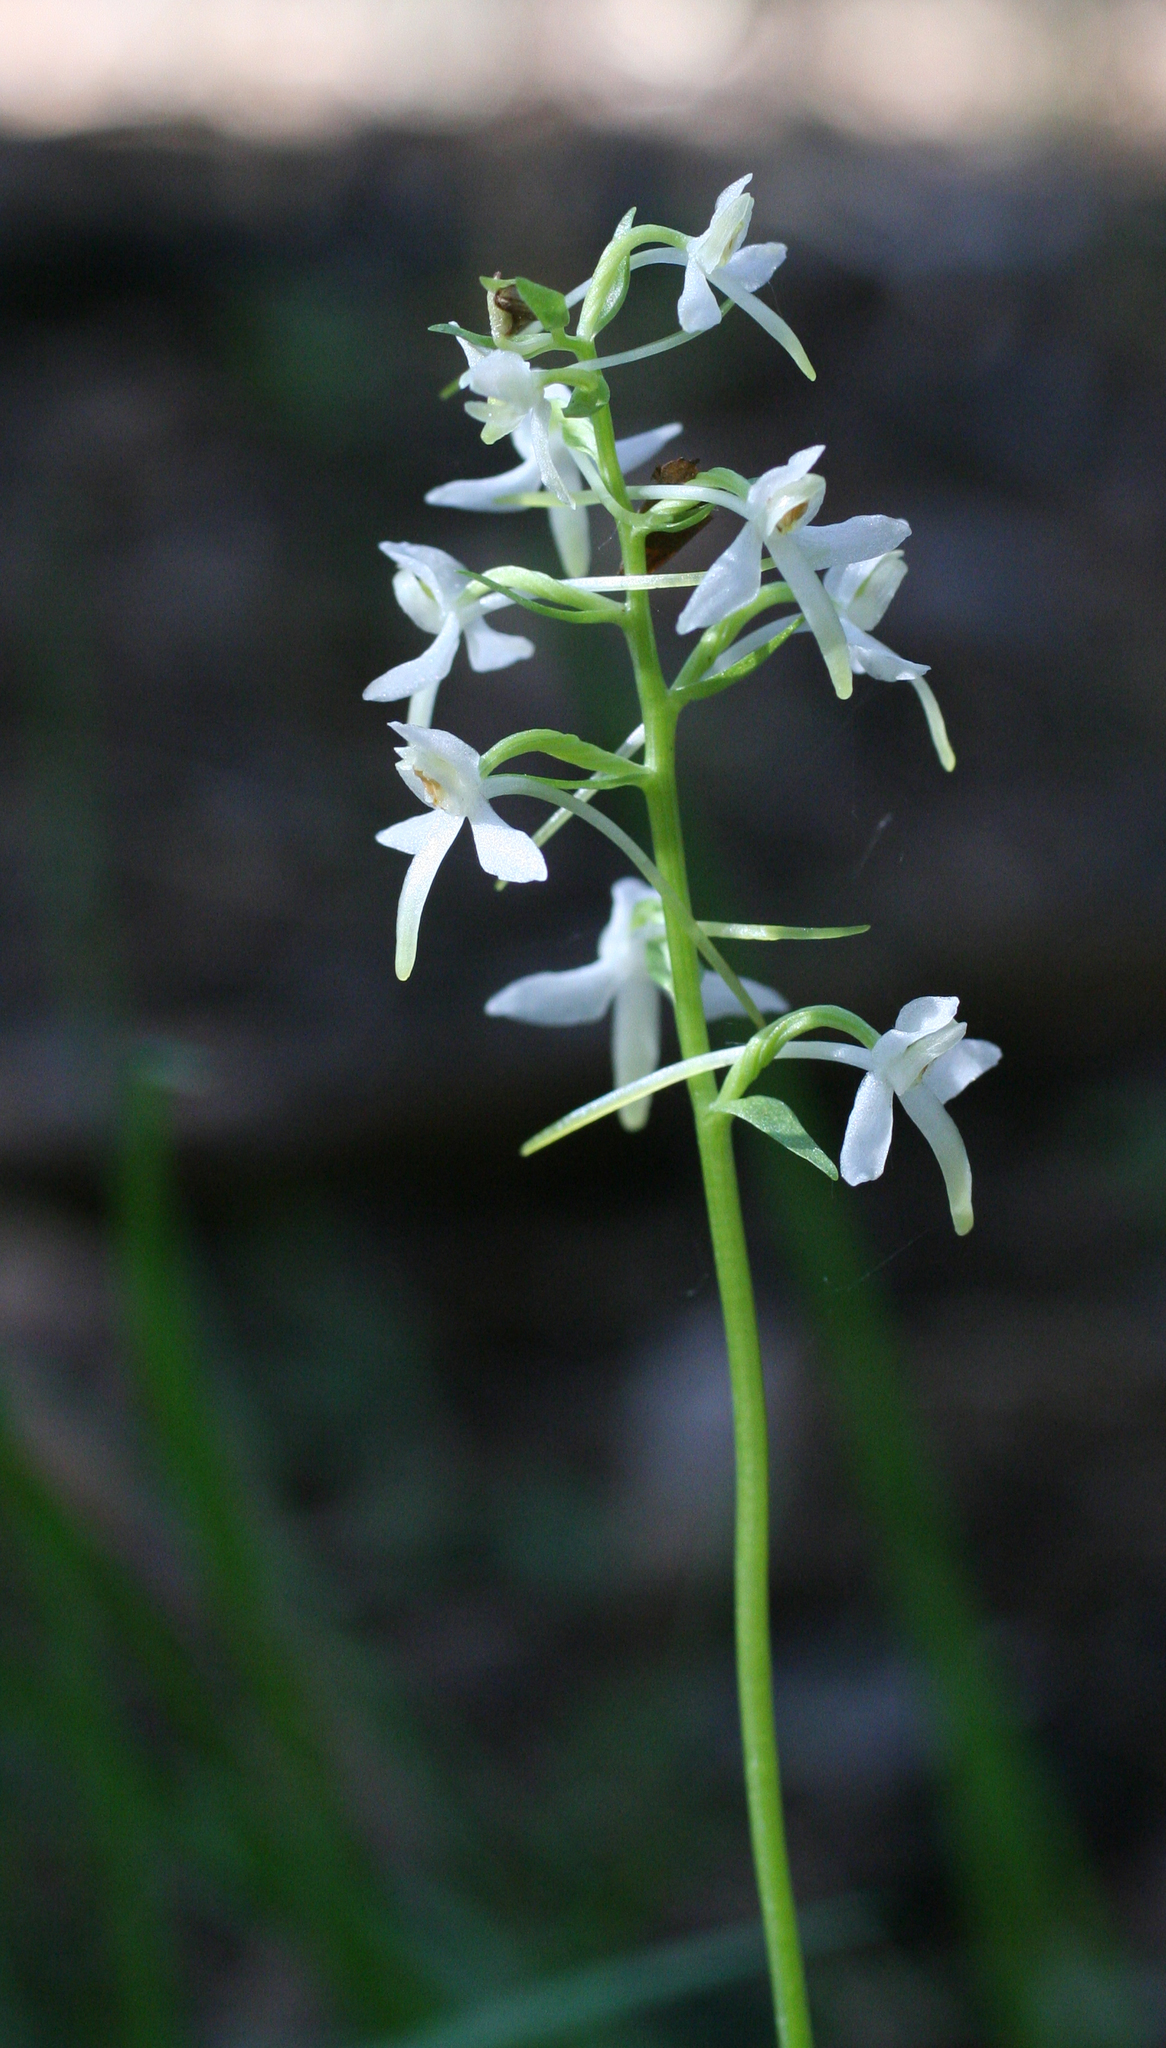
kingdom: Plantae
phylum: Tracheophyta
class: Liliopsida
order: Asparagales
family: Orchidaceae
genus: Platanthera
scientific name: Platanthera bifolia
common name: Lesser butterfly-orchid
